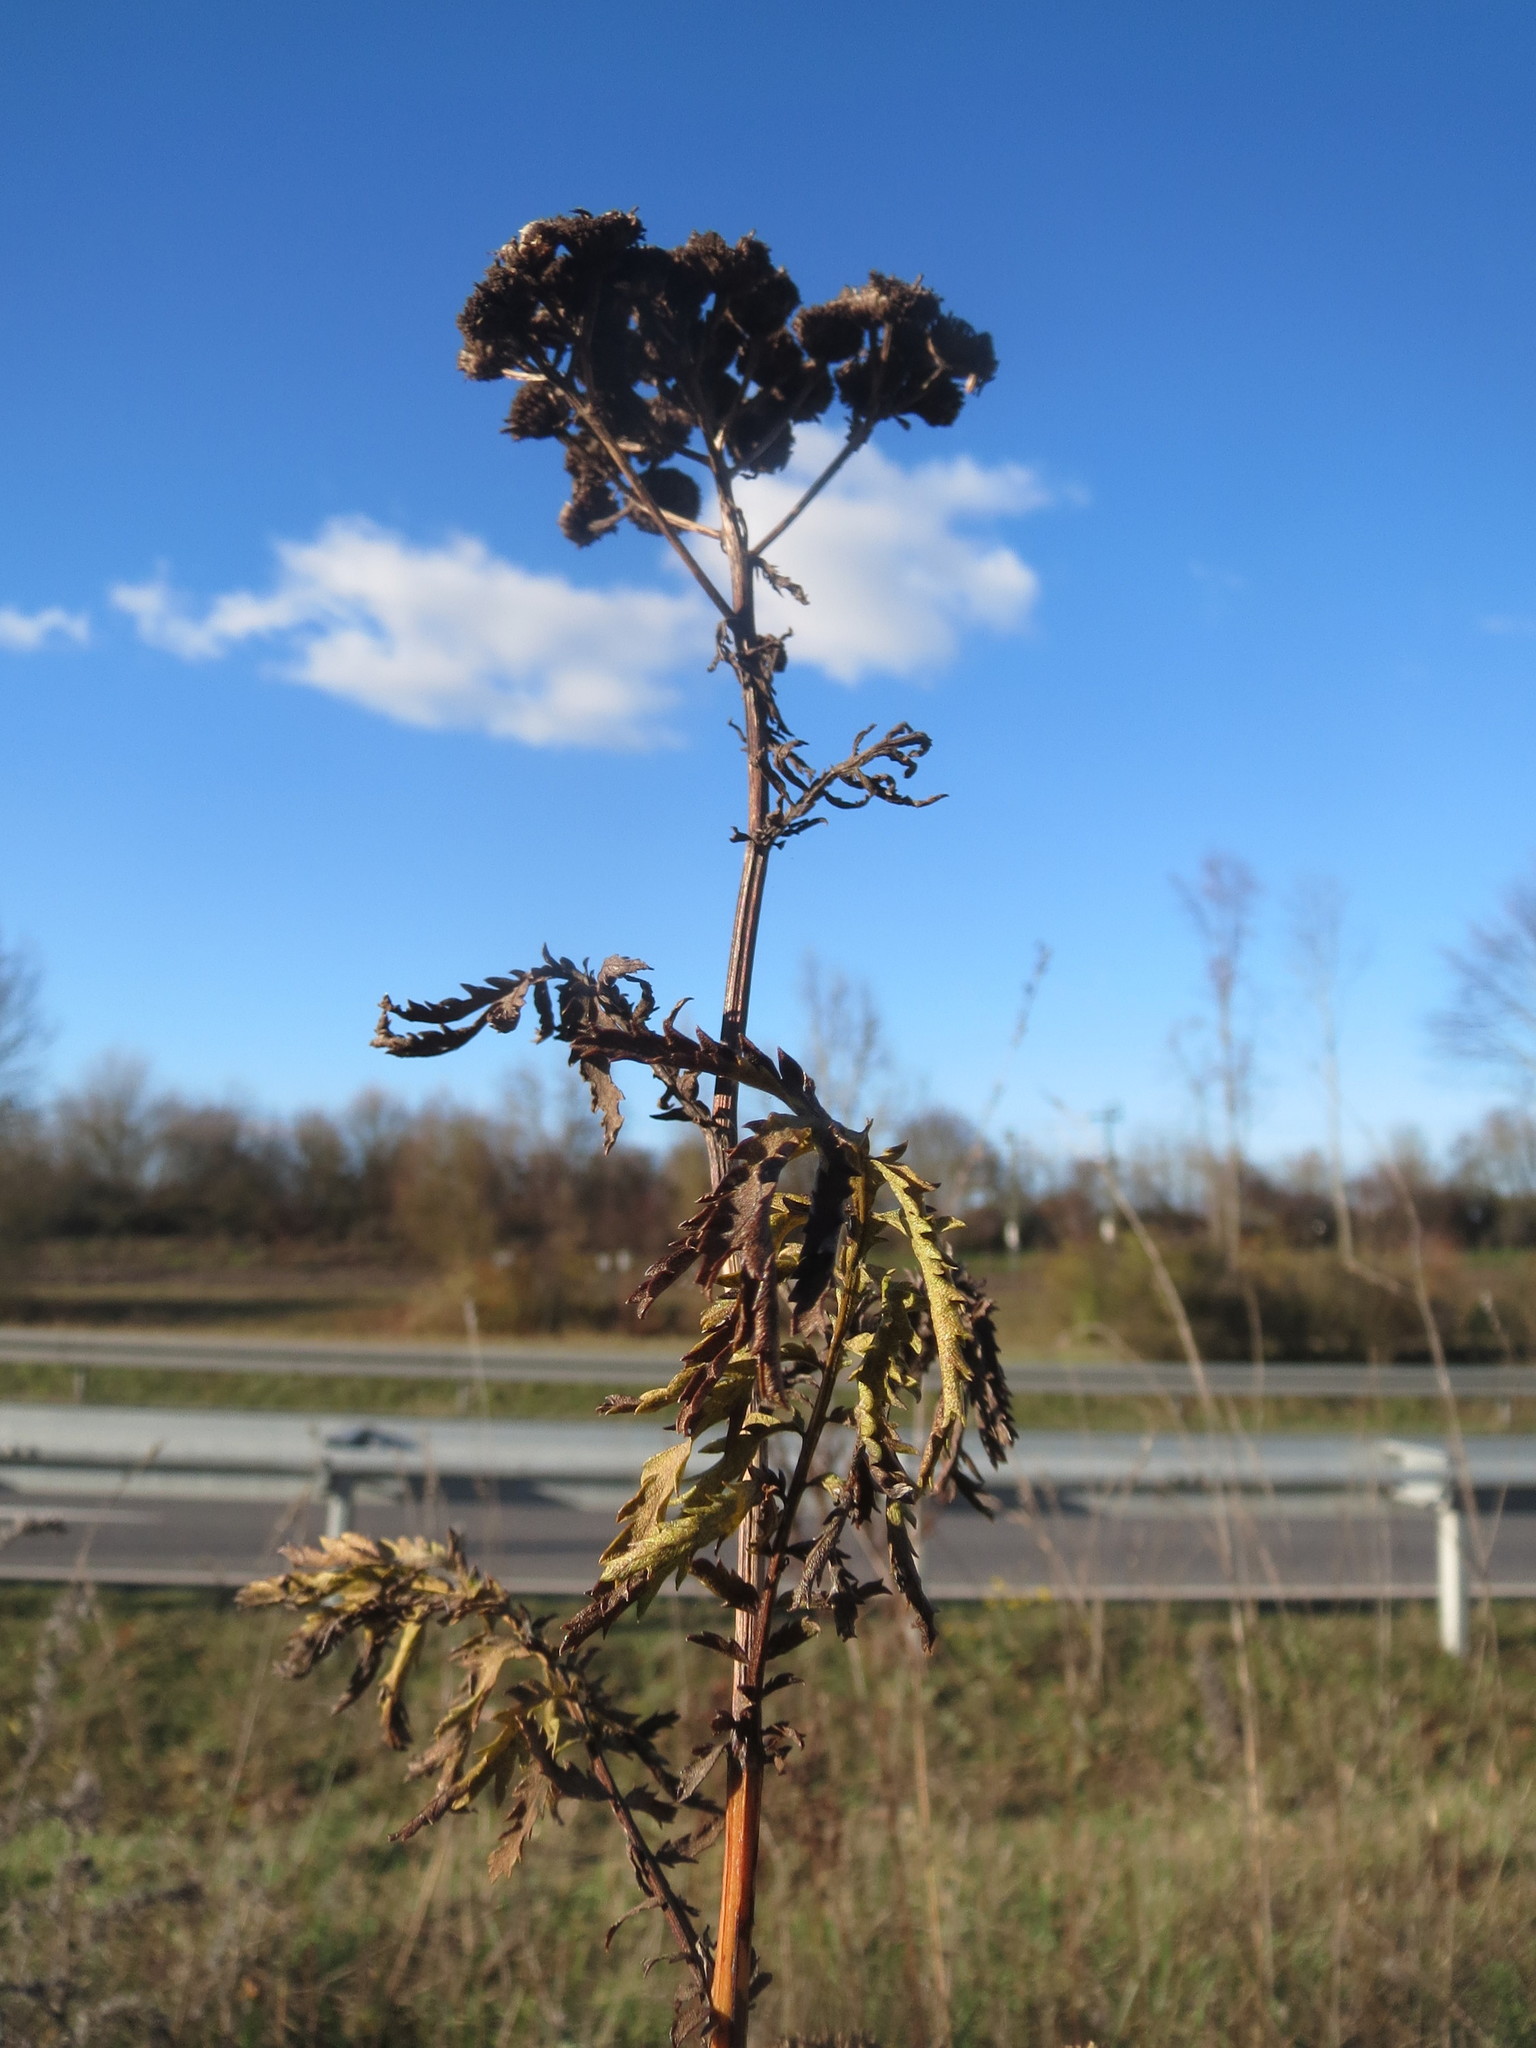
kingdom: Plantae
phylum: Tracheophyta
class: Magnoliopsida
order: Asterales
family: Asteraceae
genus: Tanacetum
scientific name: Tanacetum vulgare
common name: Common tansy
